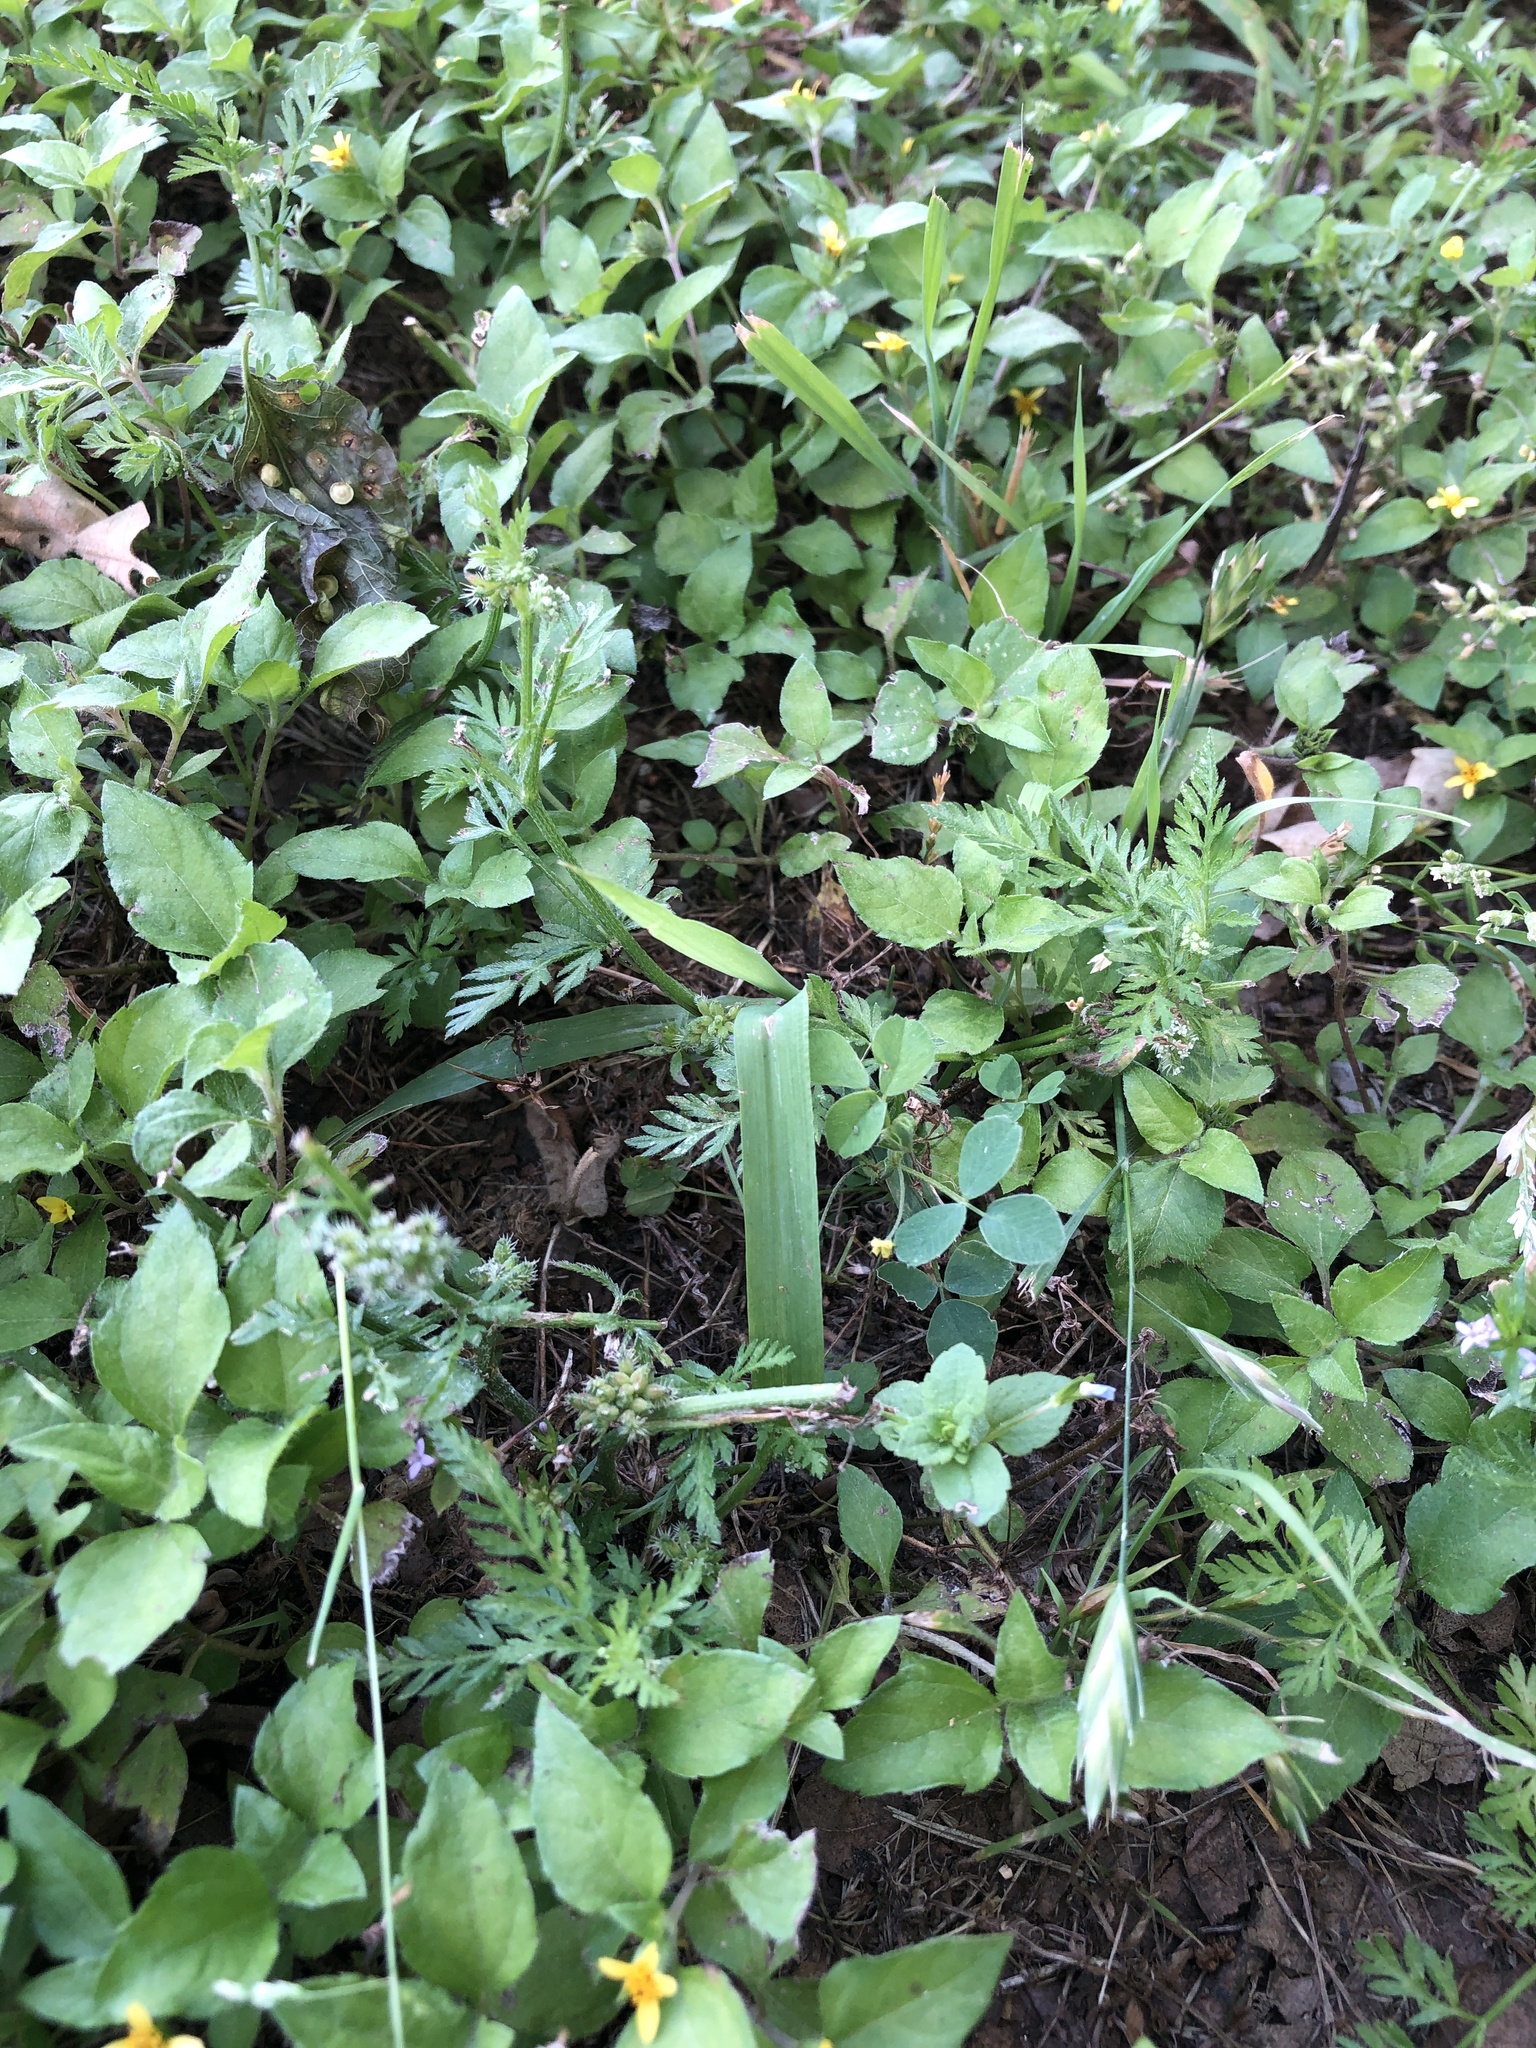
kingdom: Plantae
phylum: Tracheophyta
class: Magnoliopsida
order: Apiales
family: Apiaceae
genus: Torilis
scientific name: Torilis nodosa
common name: Knotted hedge-parsley
